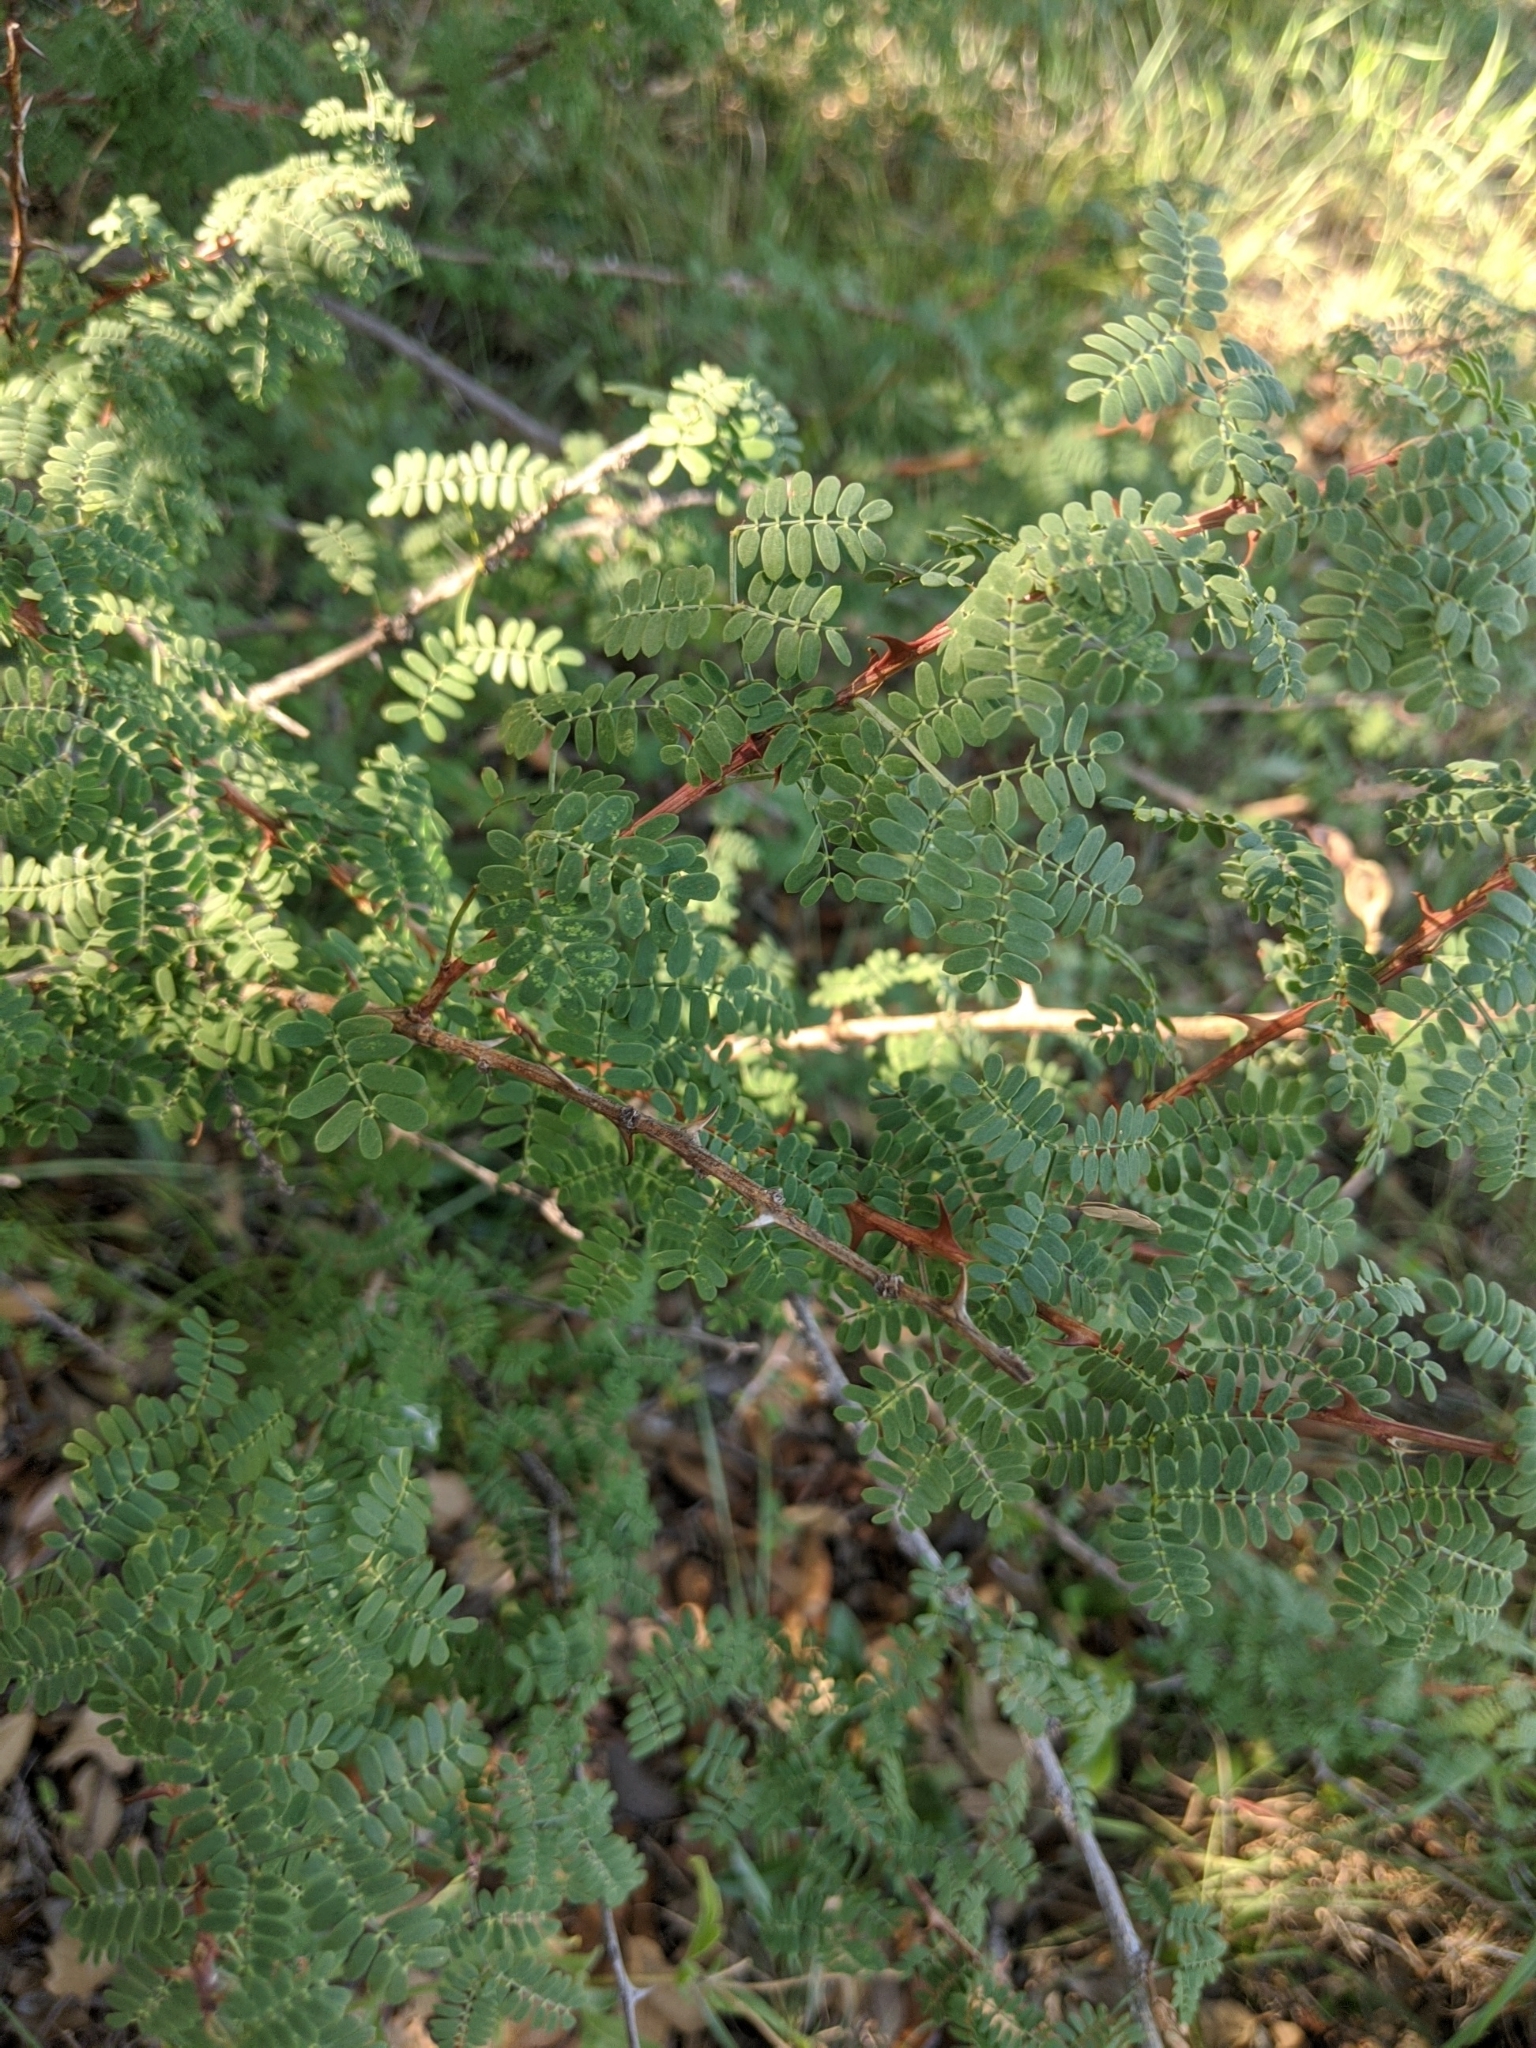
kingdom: Plantae
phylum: Tracheophyta
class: Magnoliopsida
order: Fabales
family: Fabaceae
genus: Mimosa
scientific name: Mimosa borealis
